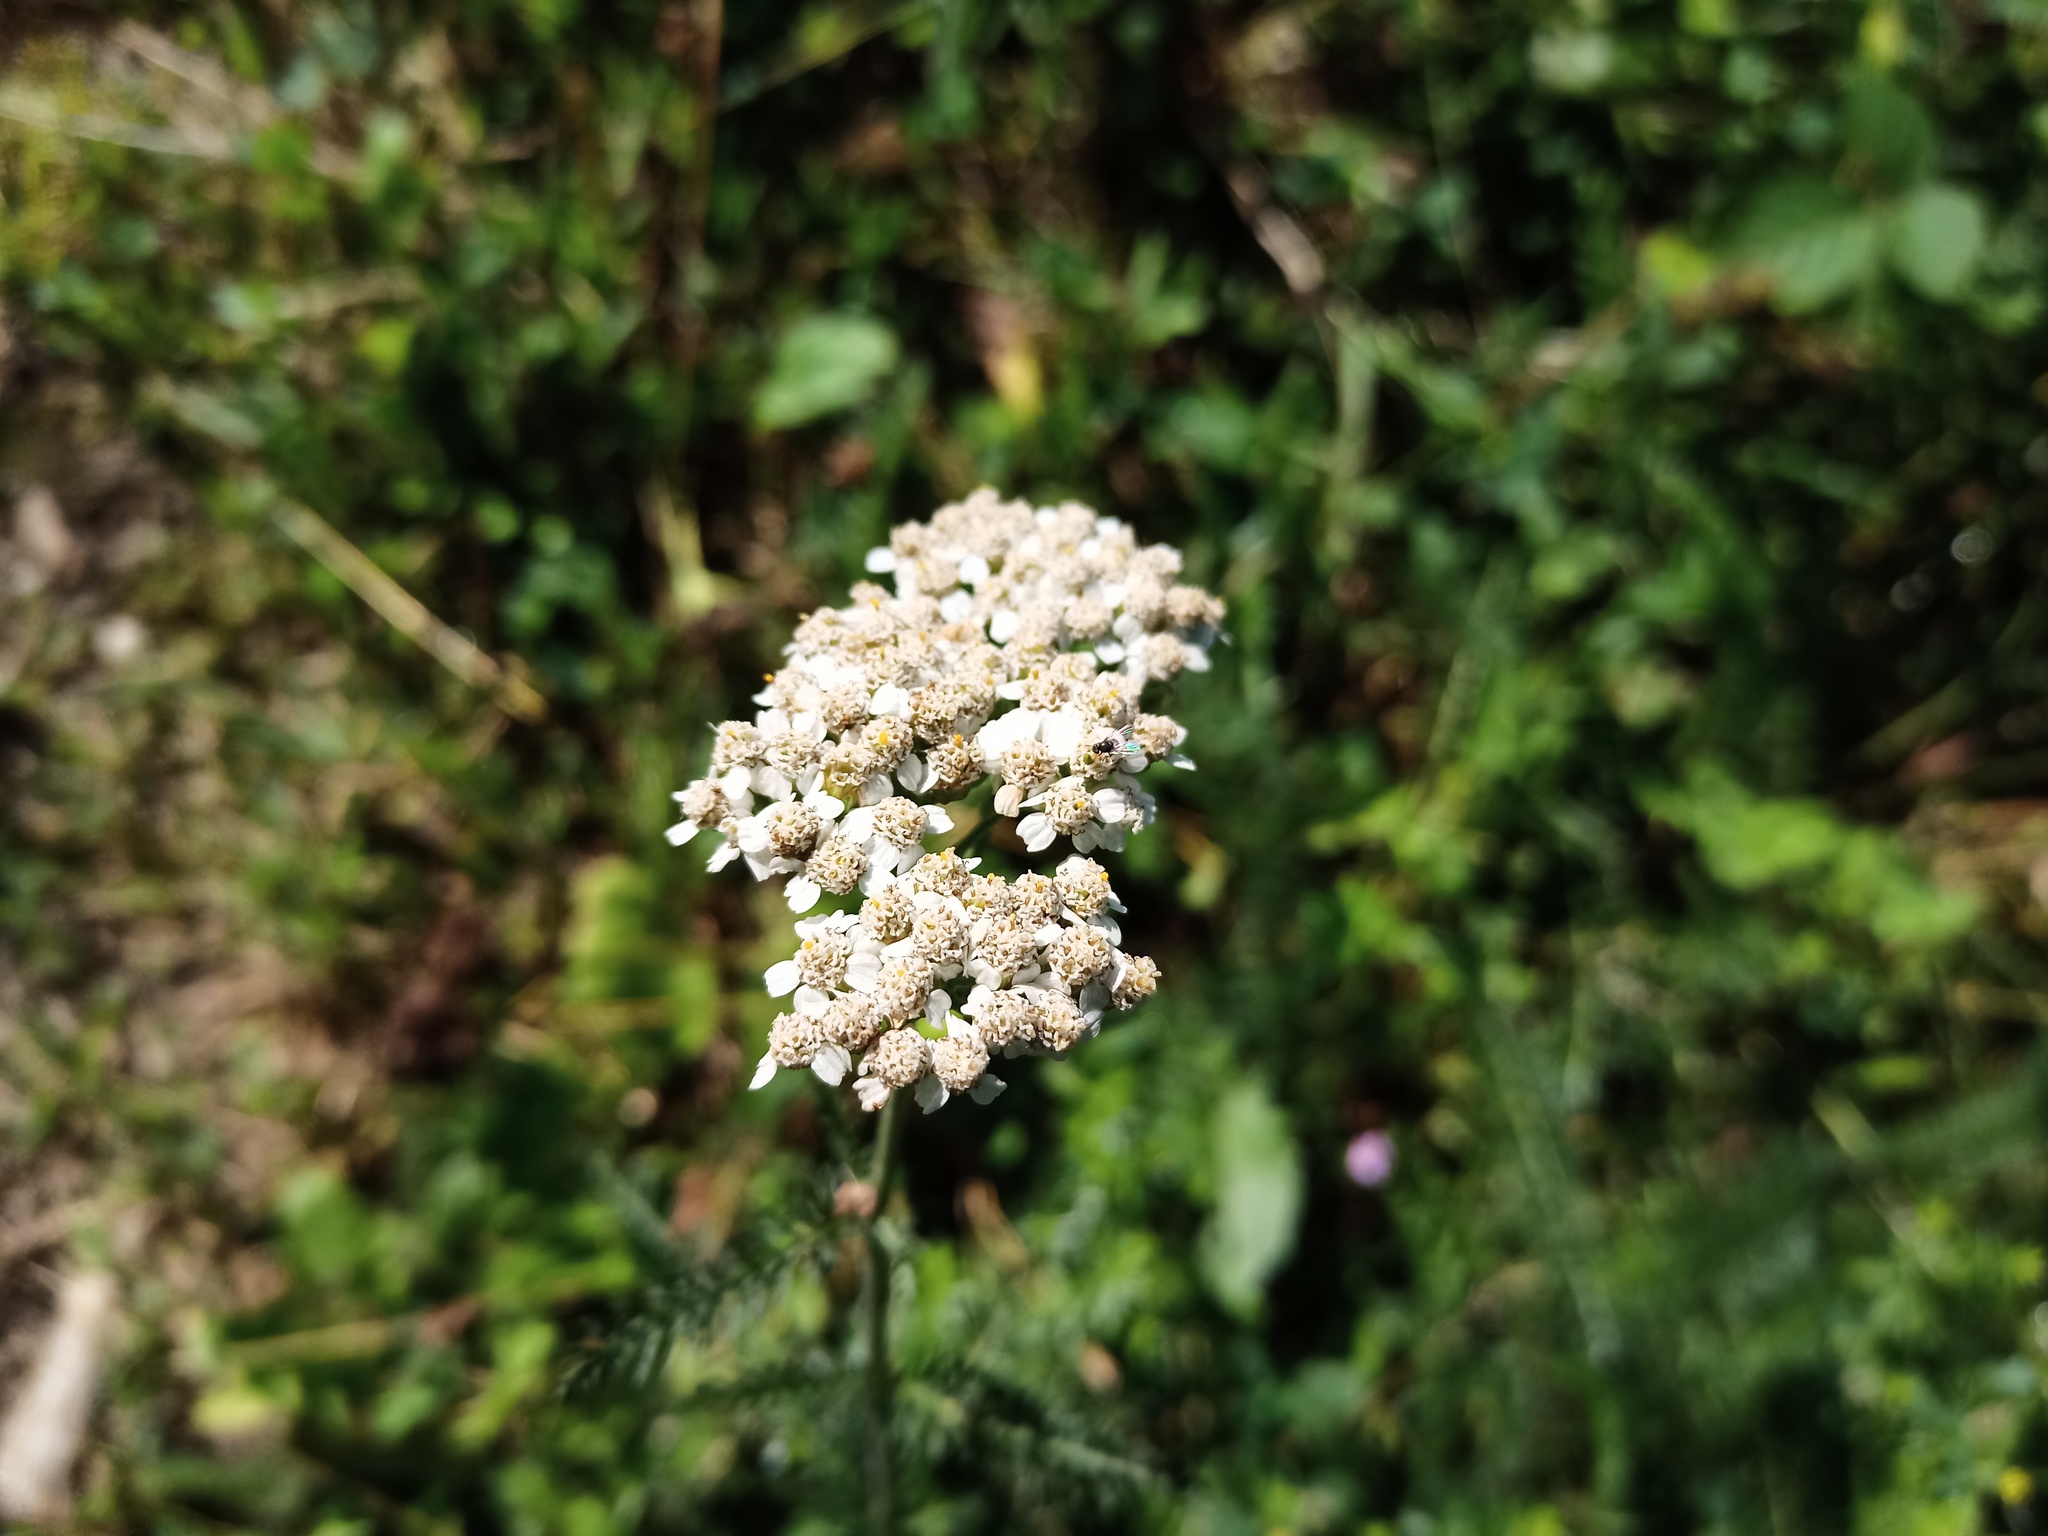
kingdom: Plantae
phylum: Tracheophyta
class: Magnoliopsida
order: Asterales
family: Asteraceae
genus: Achillea
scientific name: Achillea millefolium
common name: Yarrow
